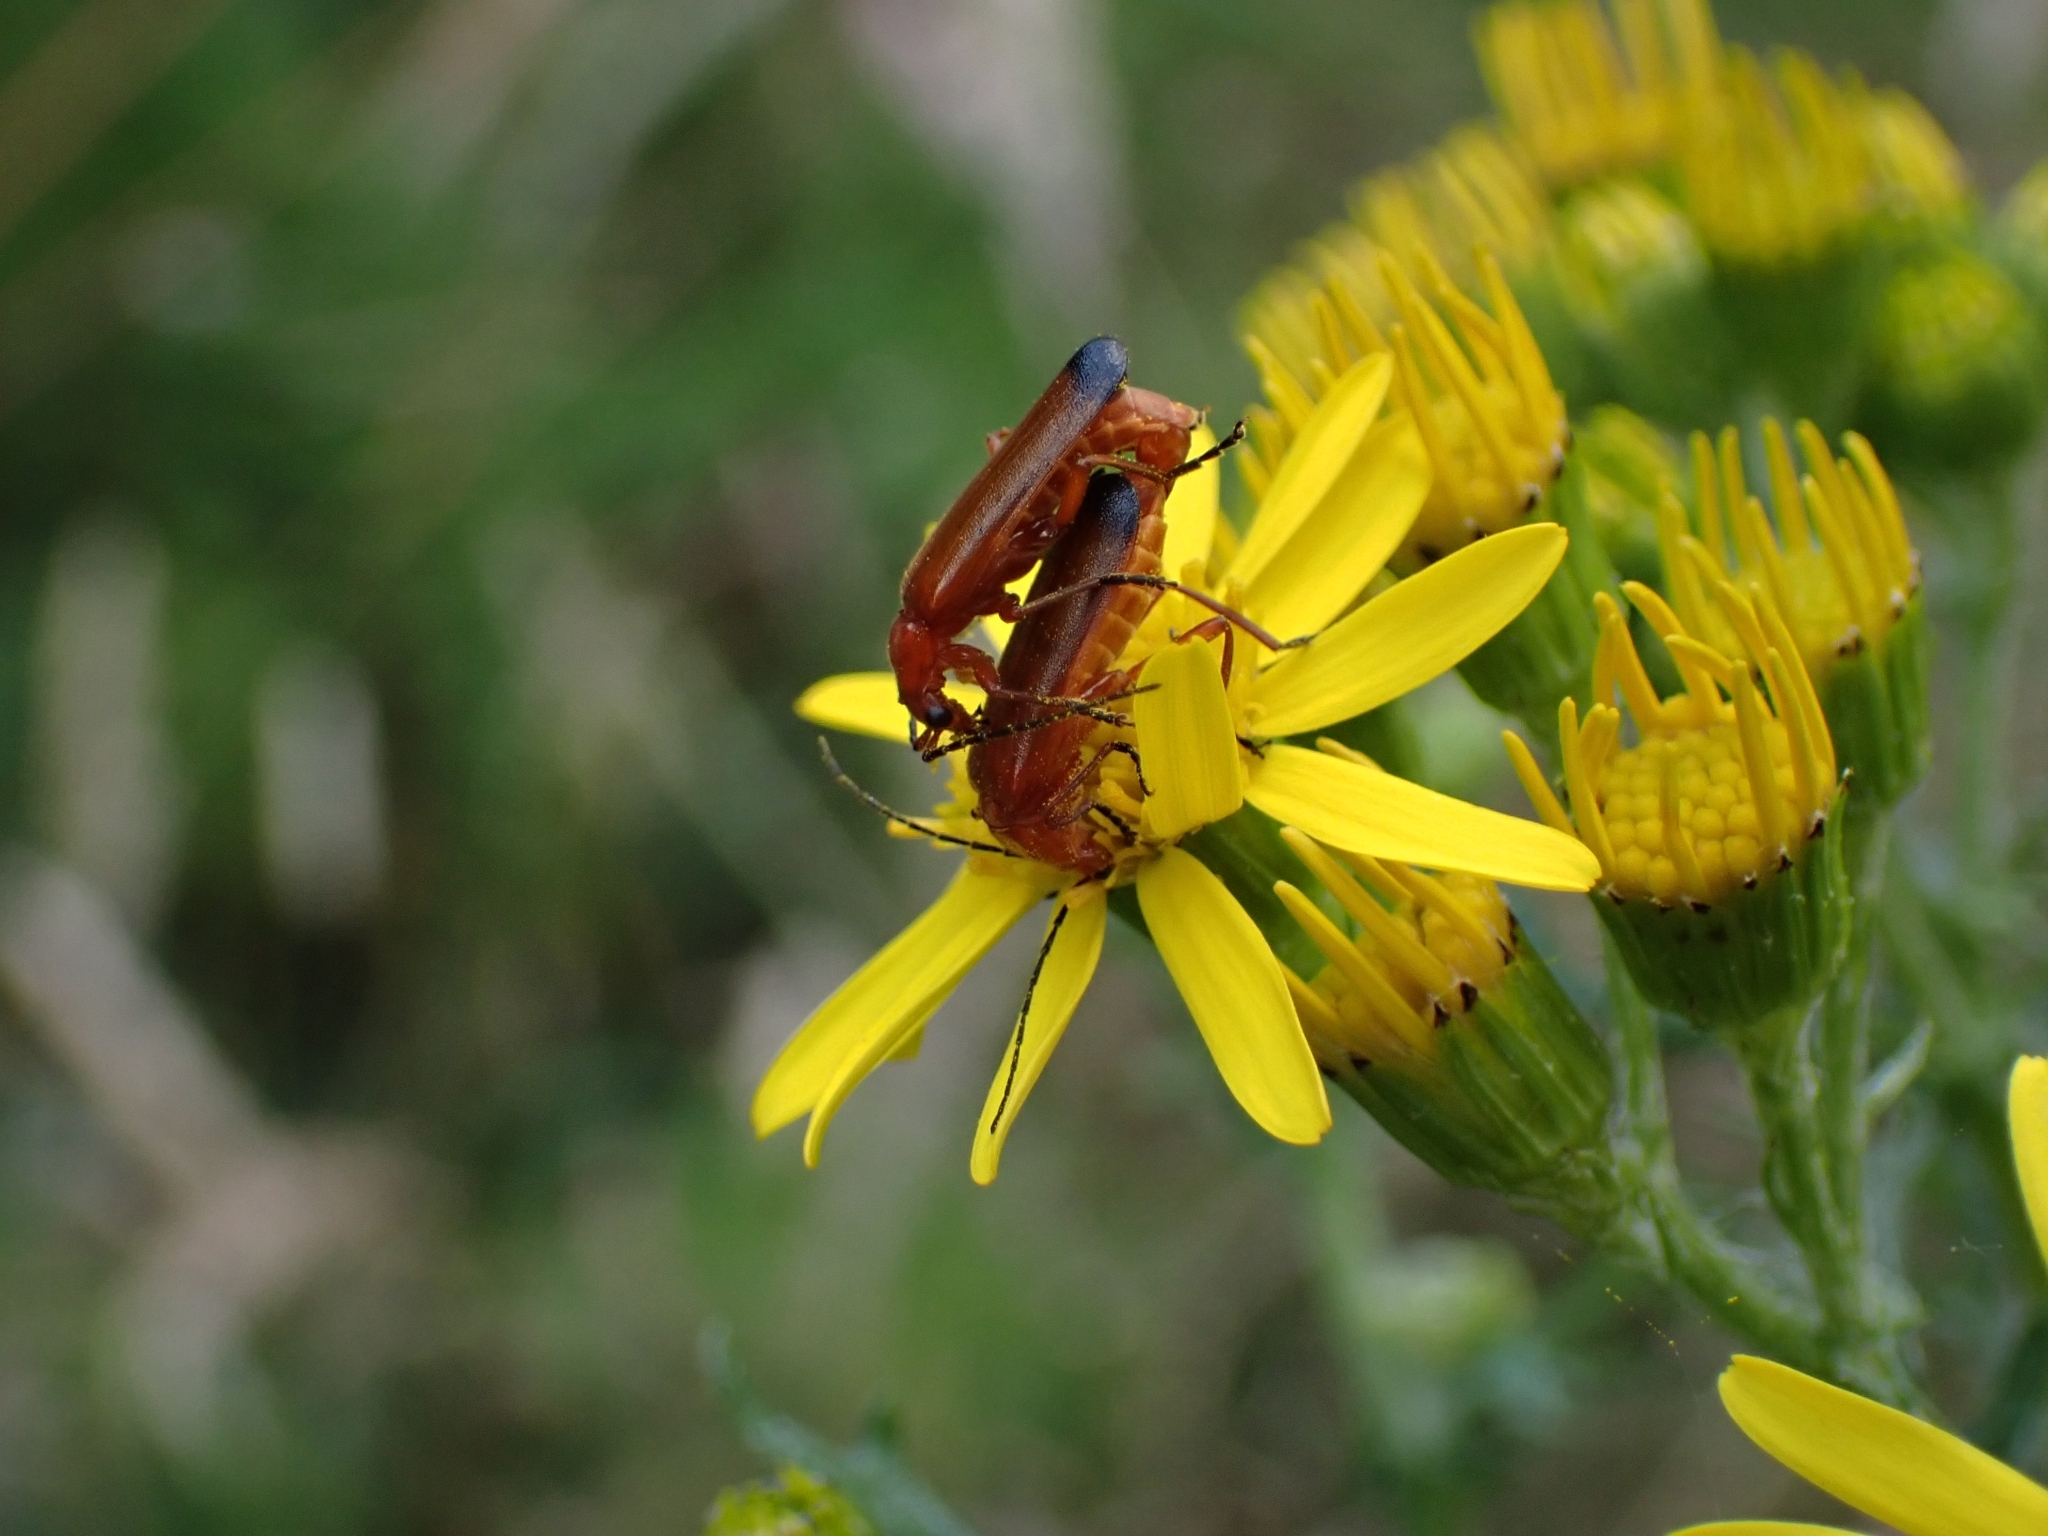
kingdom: Animalia
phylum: Arthropoda
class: Insecta
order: Coleoptera
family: Cantharidae
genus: Rhagonycha
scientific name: Rhagonycha fulva
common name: Common red soldier beetle
